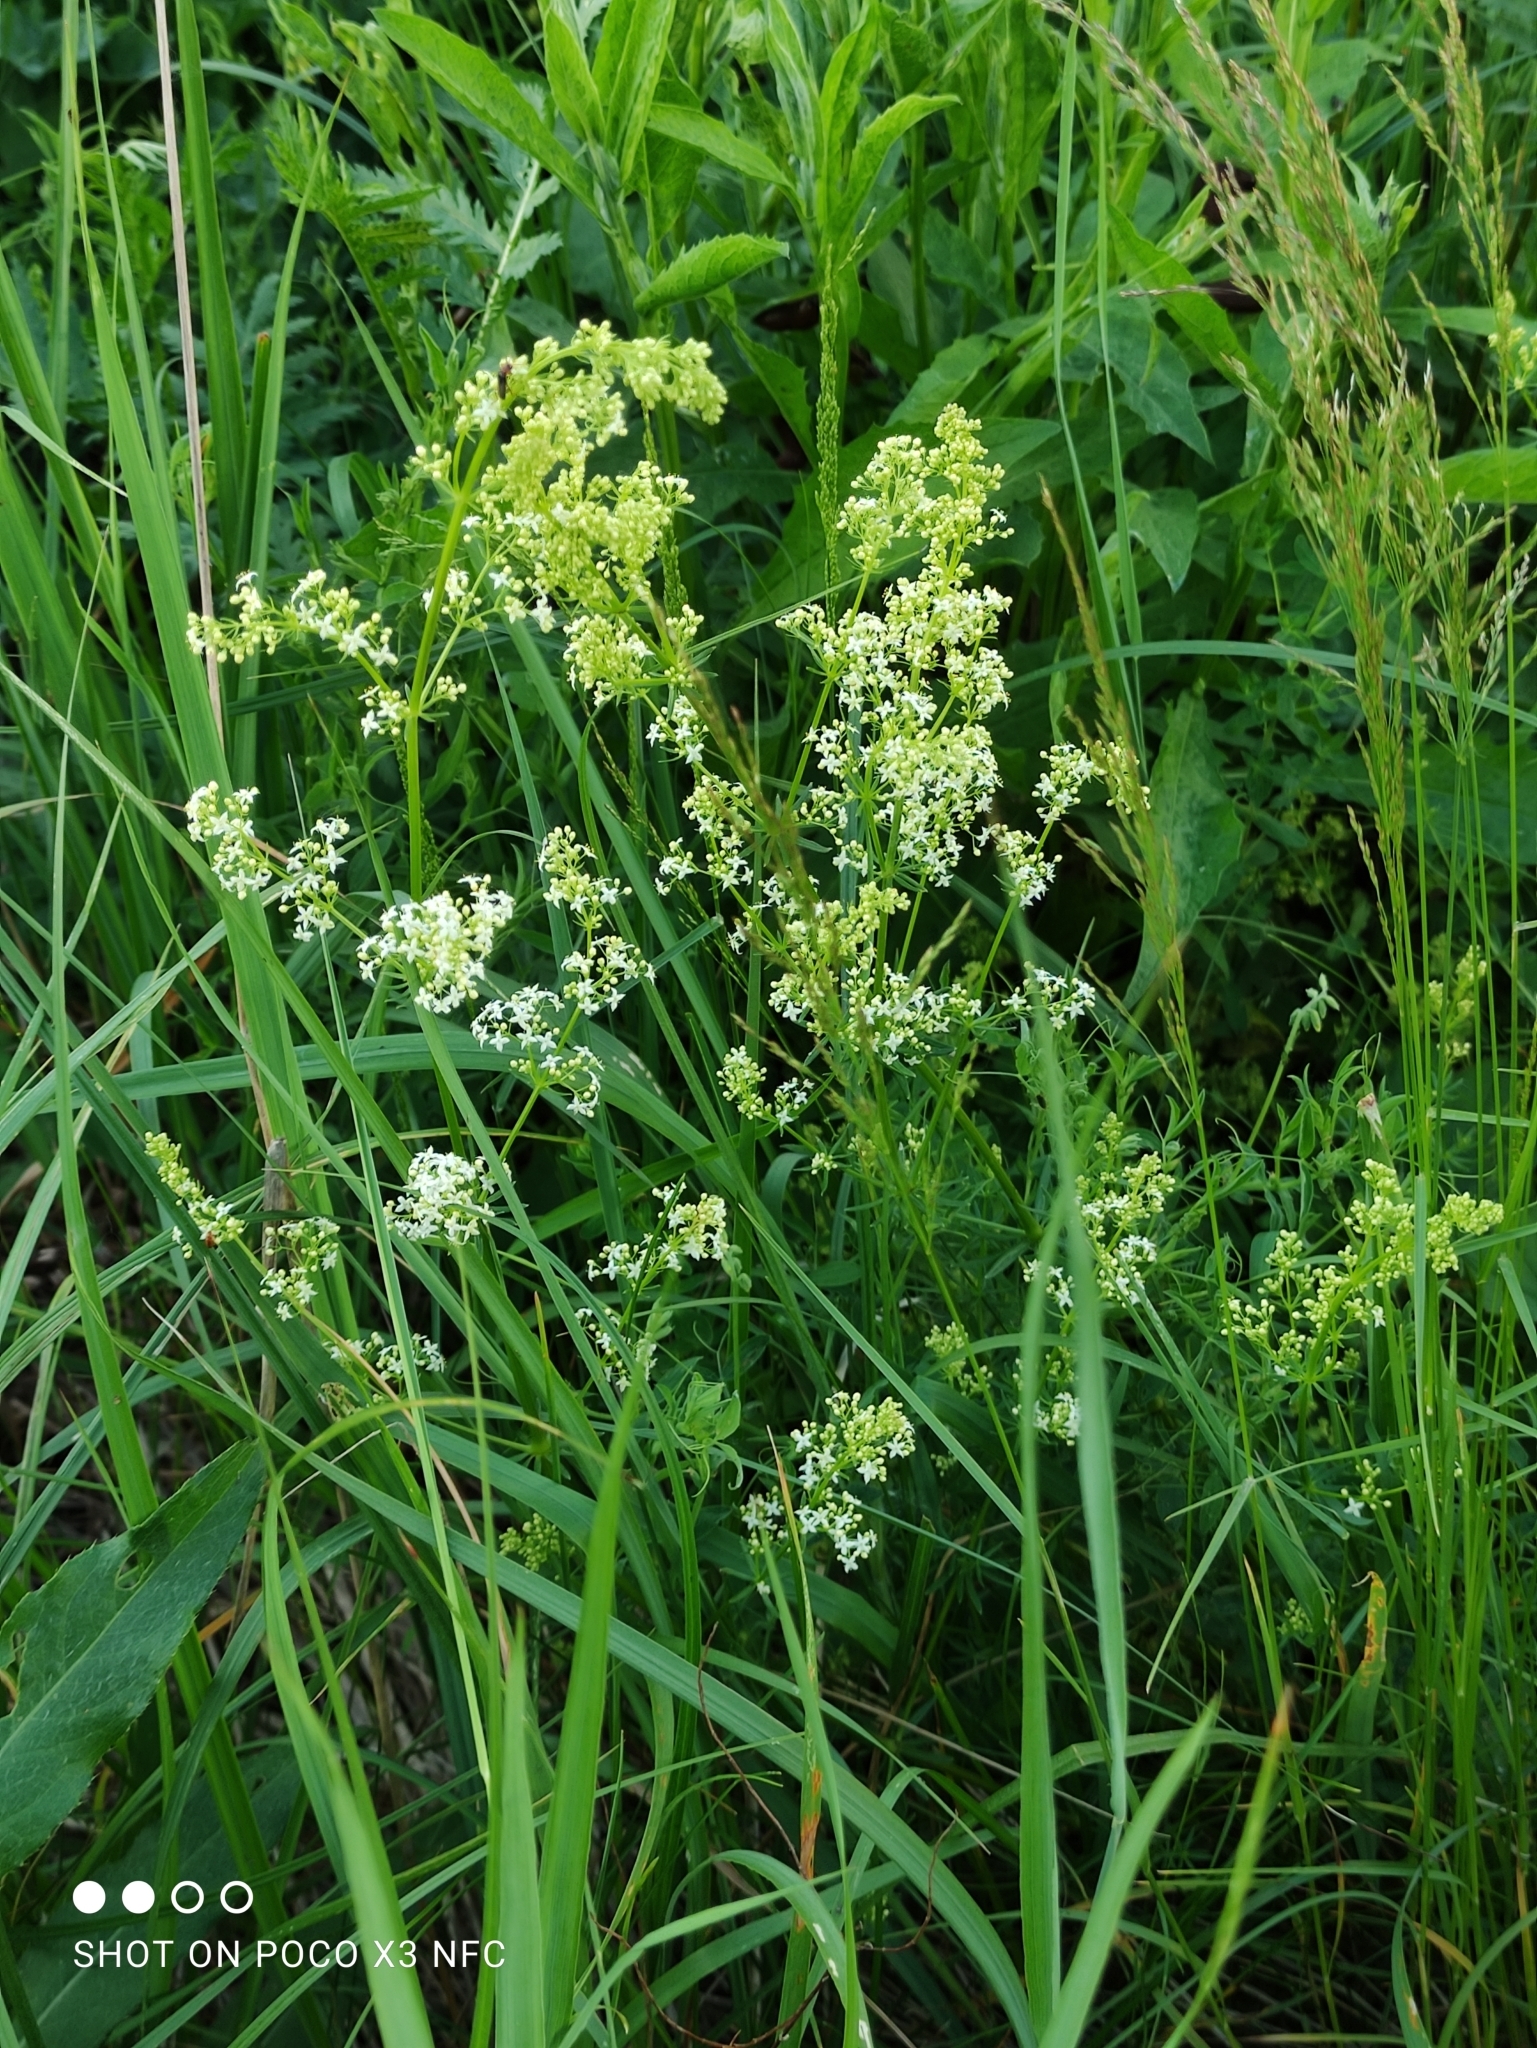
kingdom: Plantae
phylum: Tracheophyta
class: Magnoliopsida
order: Gentianales
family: Rubiaceae
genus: Galium
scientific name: Galium mollugo
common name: Hedge bedstraw
